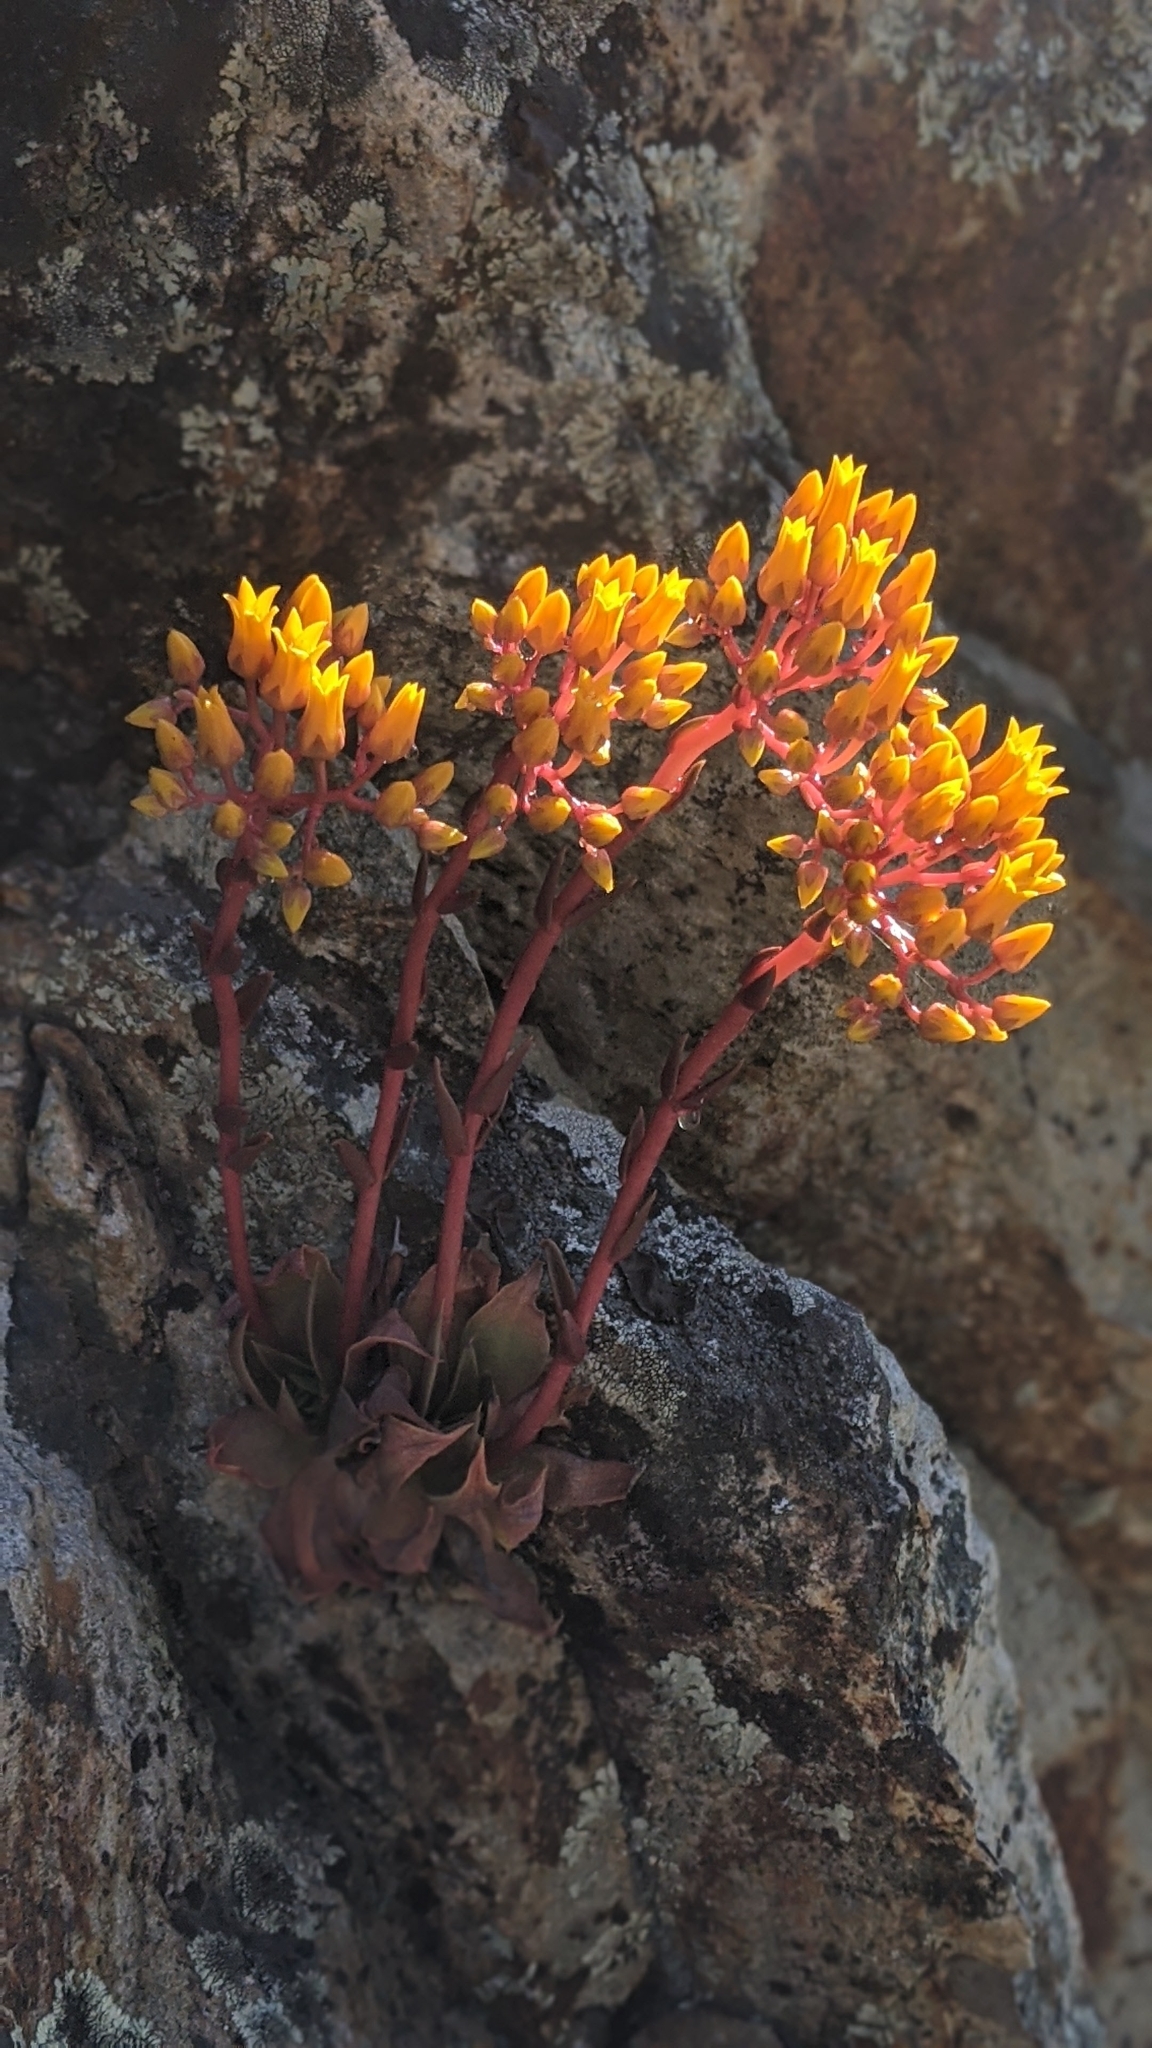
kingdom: Plantae
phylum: Tracheophyta
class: Magnoliopsida
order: Saxifragales
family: Crassulaceae
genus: Dudleya
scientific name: Dudleya cymosa
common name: Canyon dudleya
